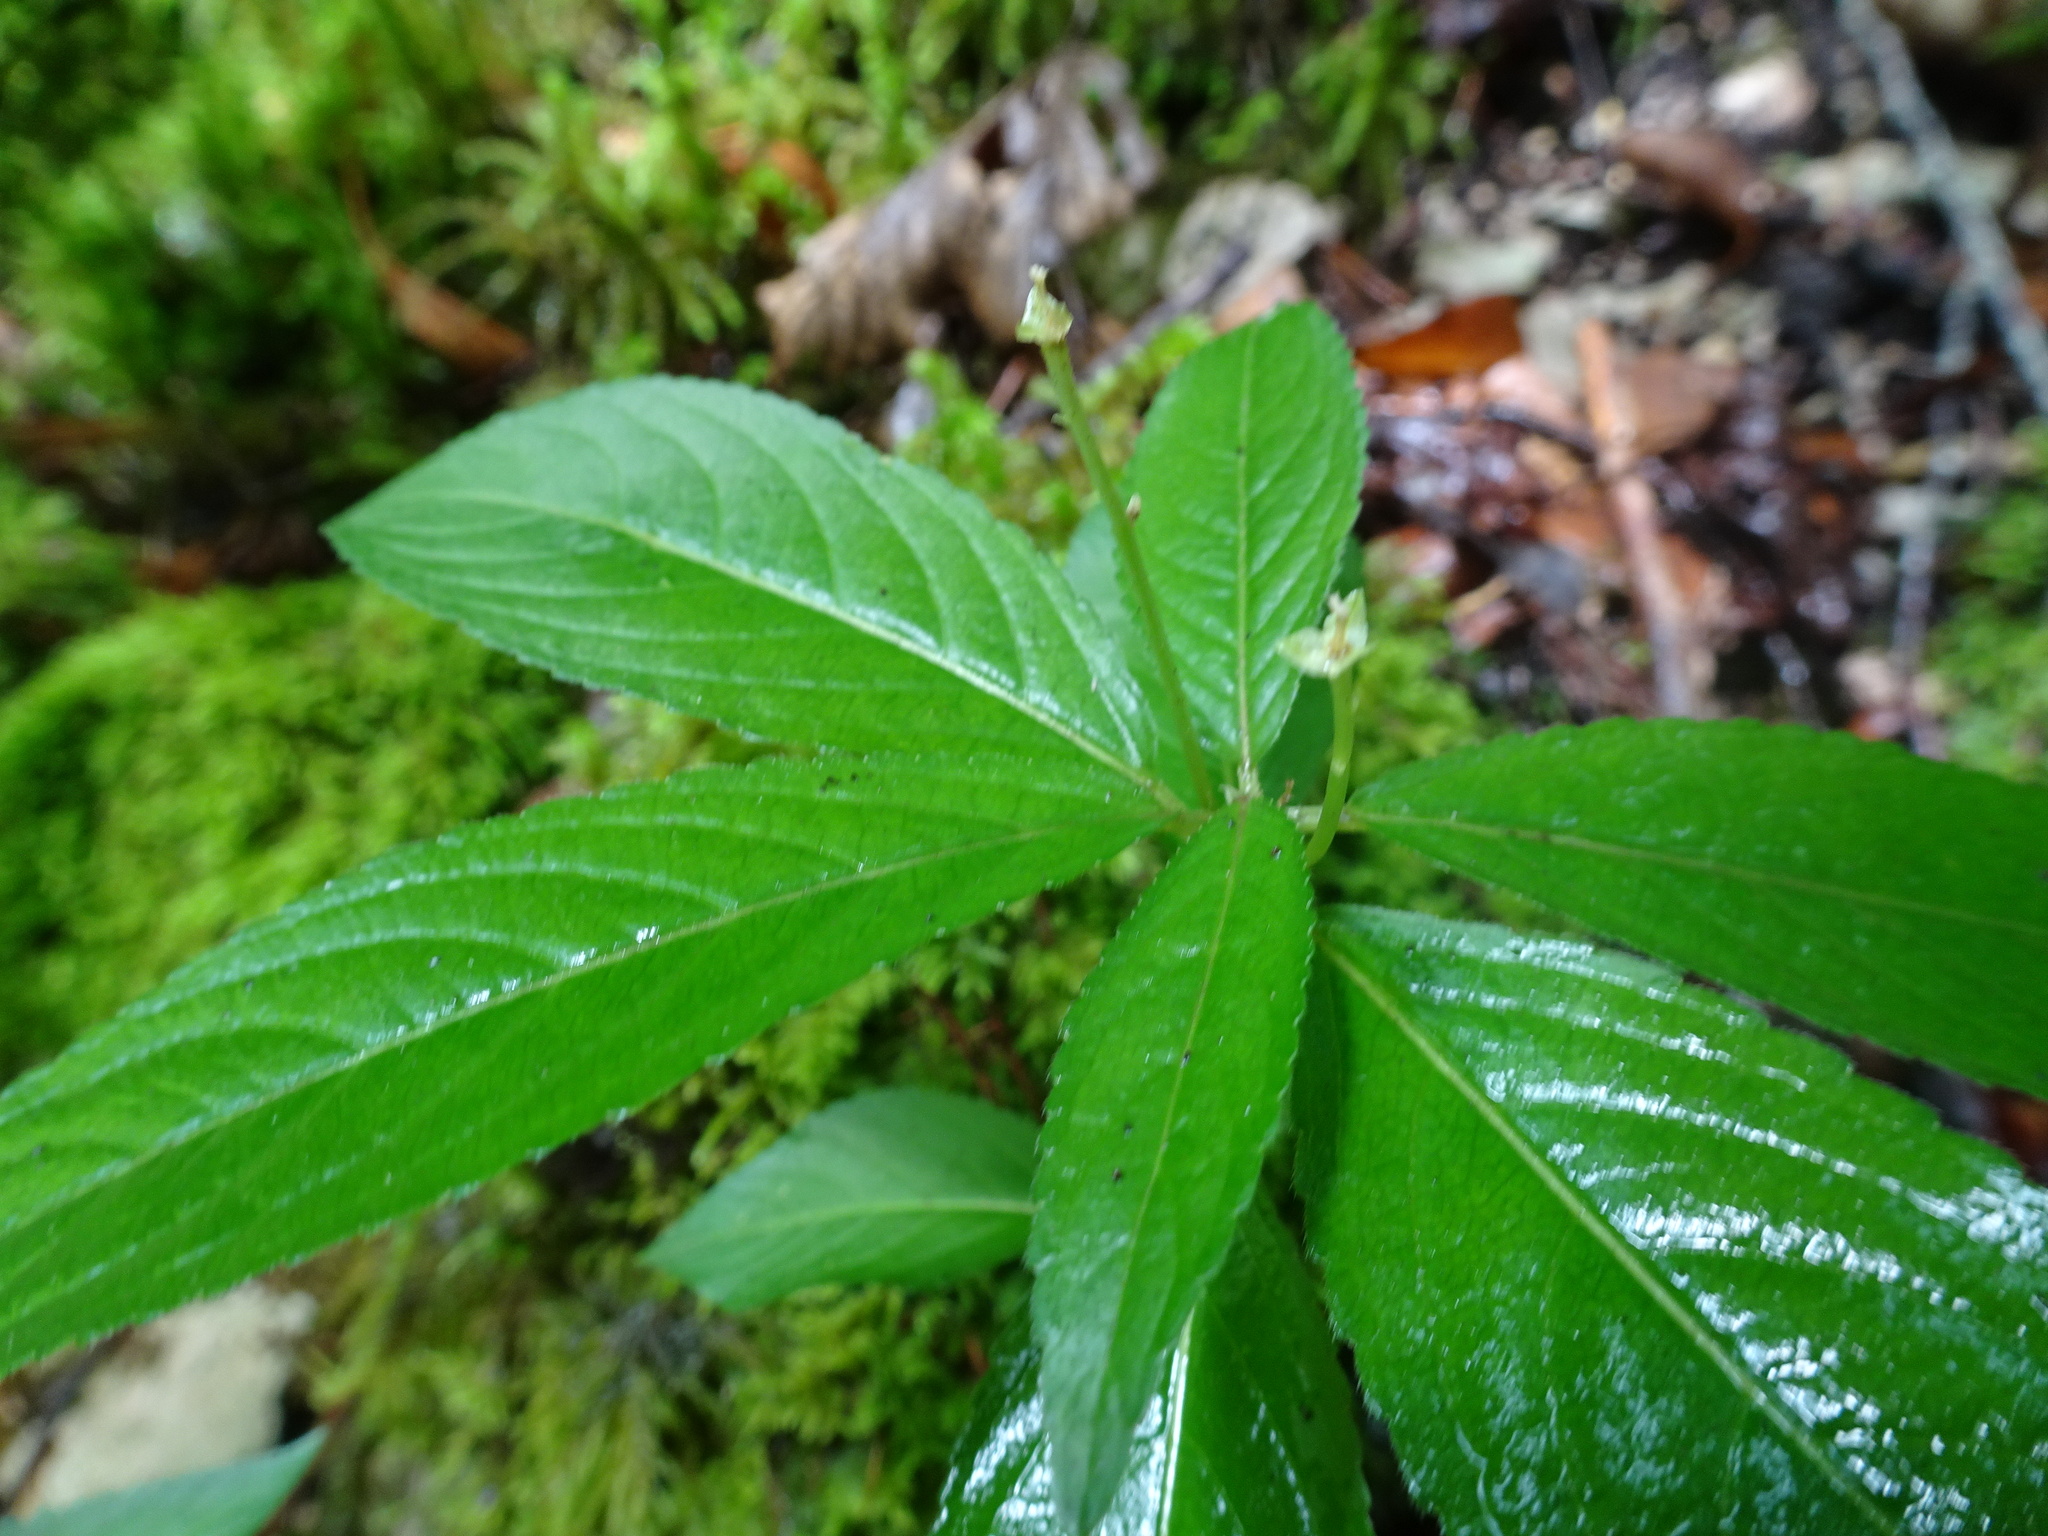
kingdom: Plantae
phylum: Tracheophyta
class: Magnoliopsida
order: Malpighiales
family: Euphorbiaceae
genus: Mercurialis
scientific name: Mercurialis perennis
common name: Dog mercury
